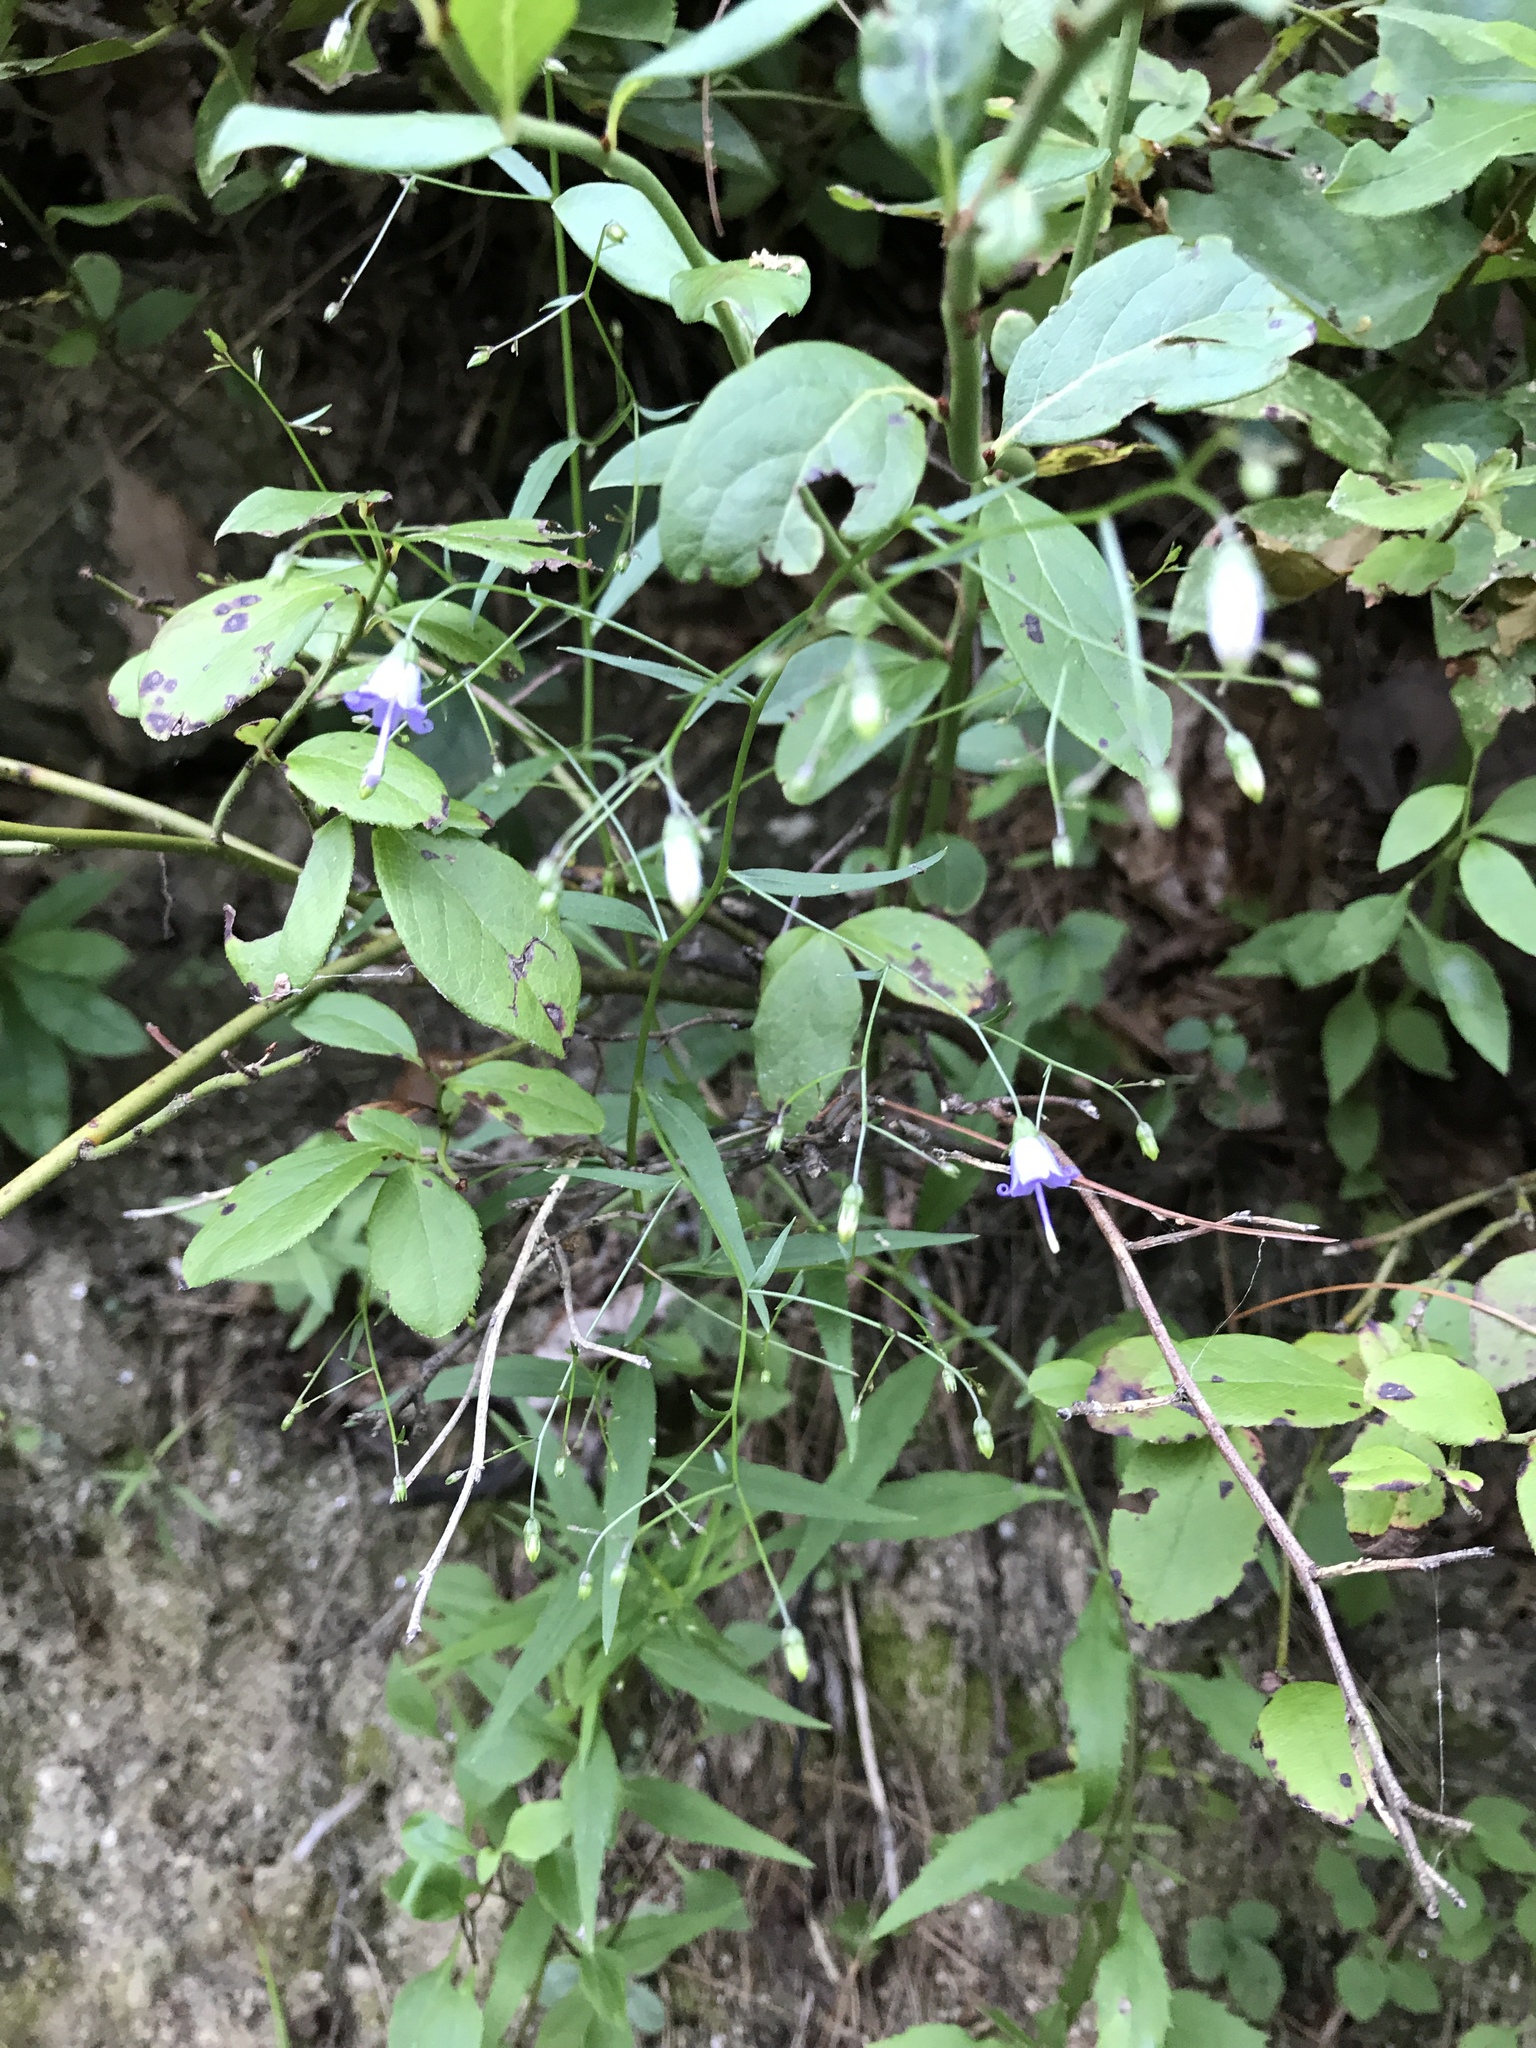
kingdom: Plantae
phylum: Tracheophyta
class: Magnoliopsida
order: Asterales
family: Campanulaceae
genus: Campanula
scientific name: Campanula divaricata
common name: Appalachian bellflower
